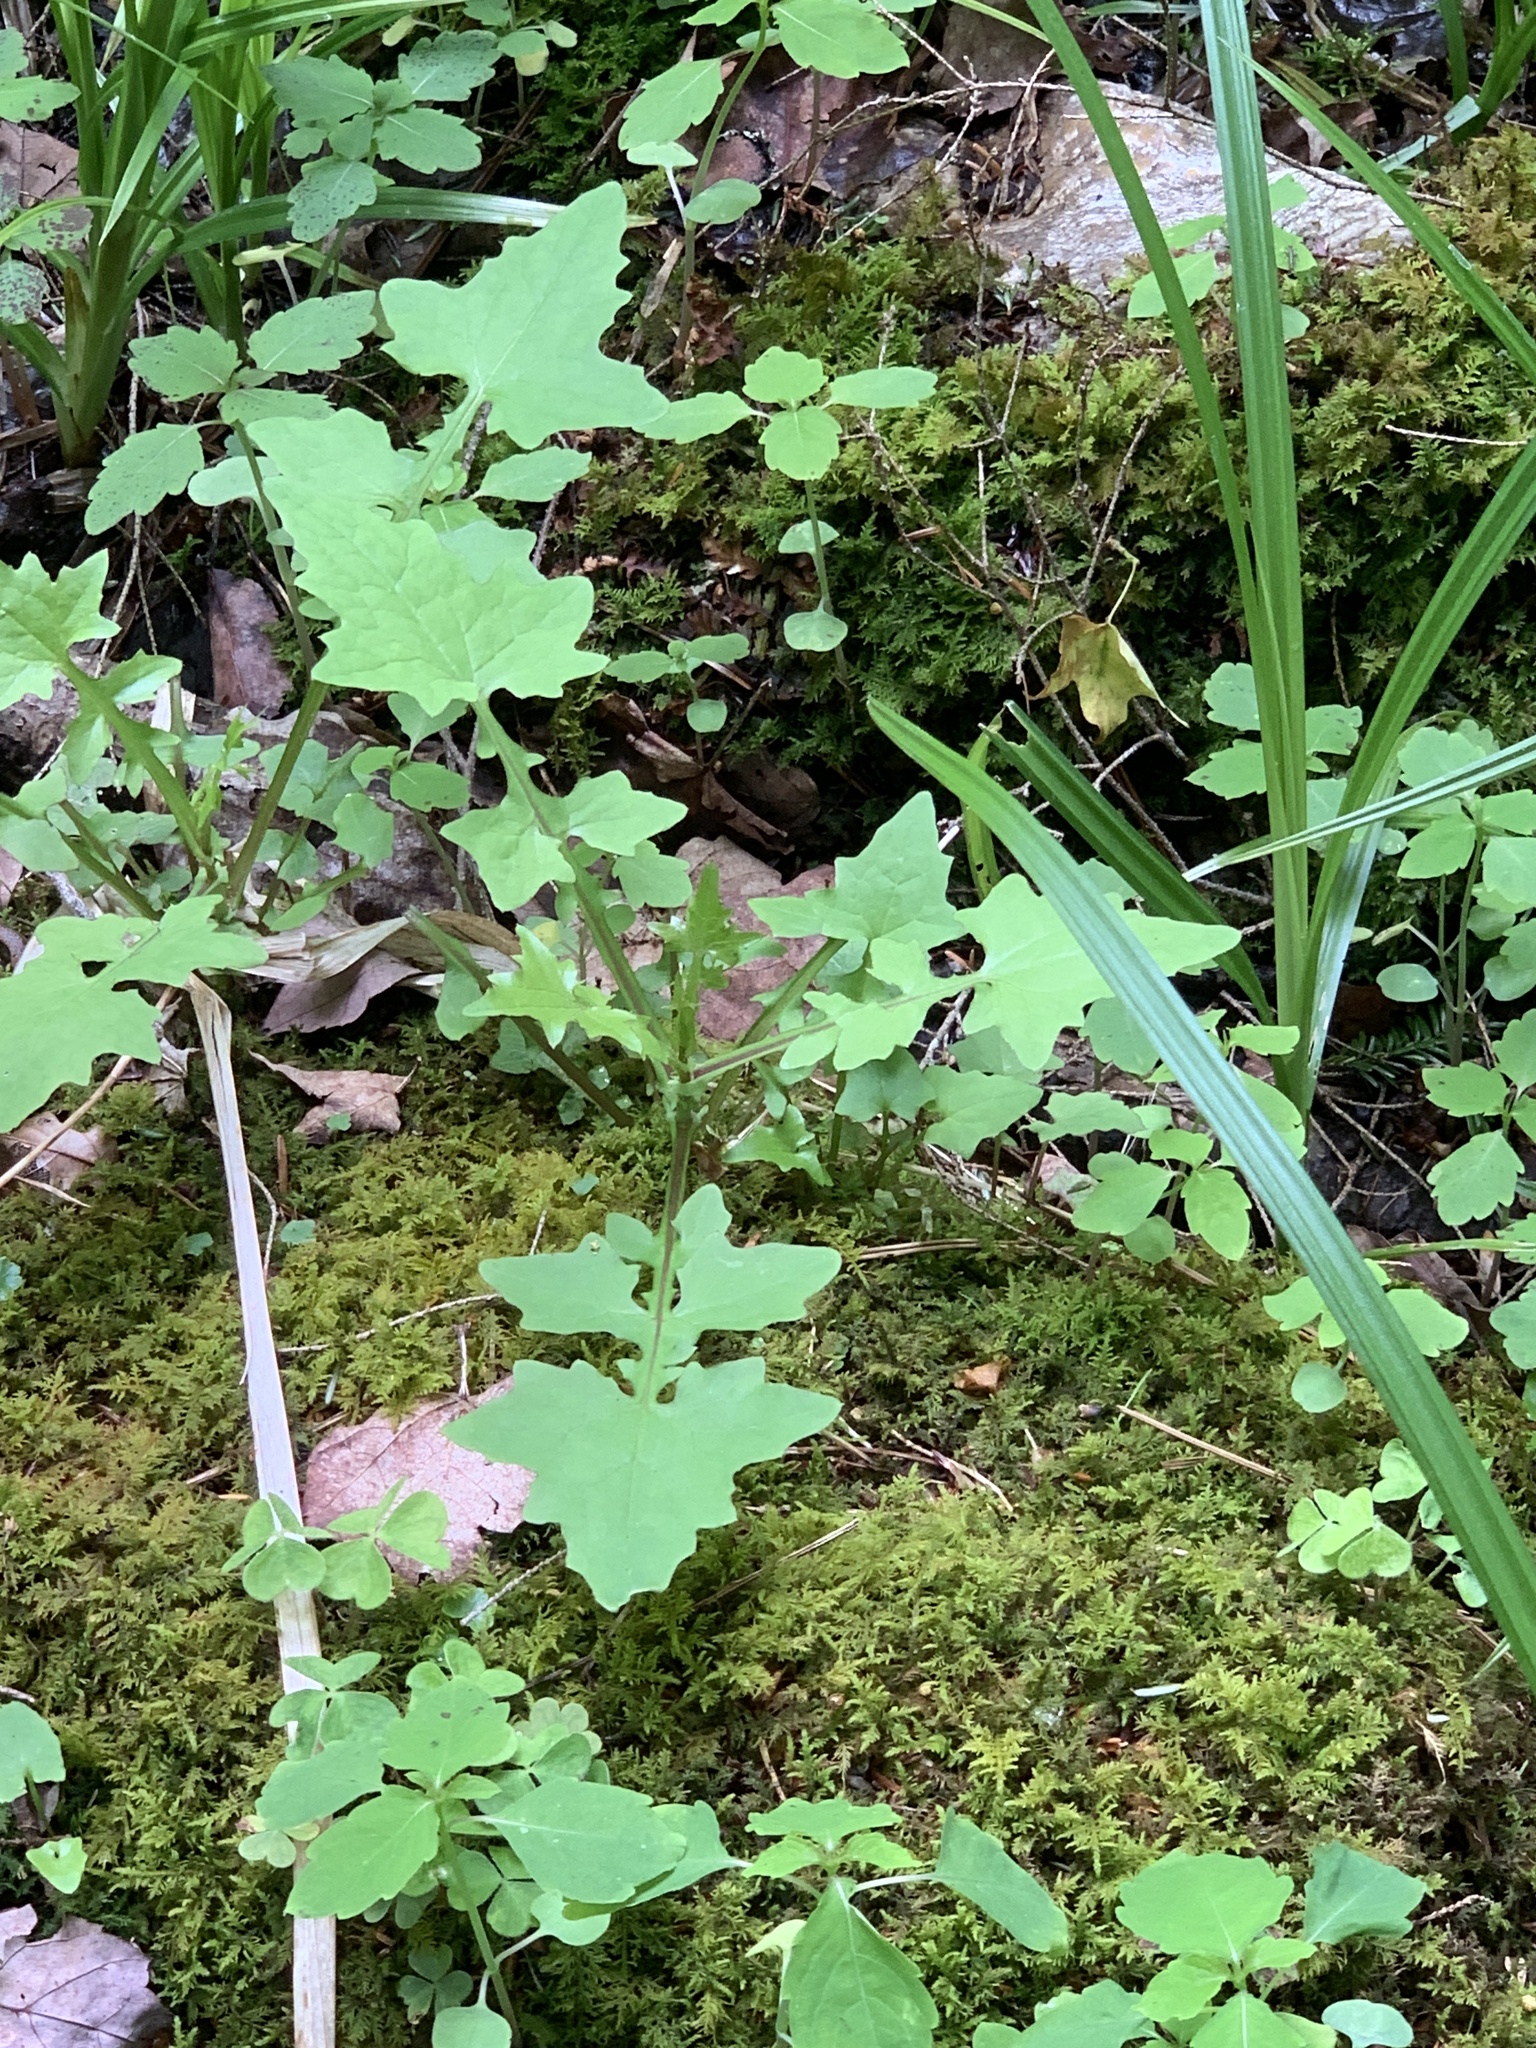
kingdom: Plantae
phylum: Tracheophyta
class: Magnoliopsida
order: Asterales
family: Asteraceae
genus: Mycelis
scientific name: Mycelis muralis
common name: Wall lettuce
